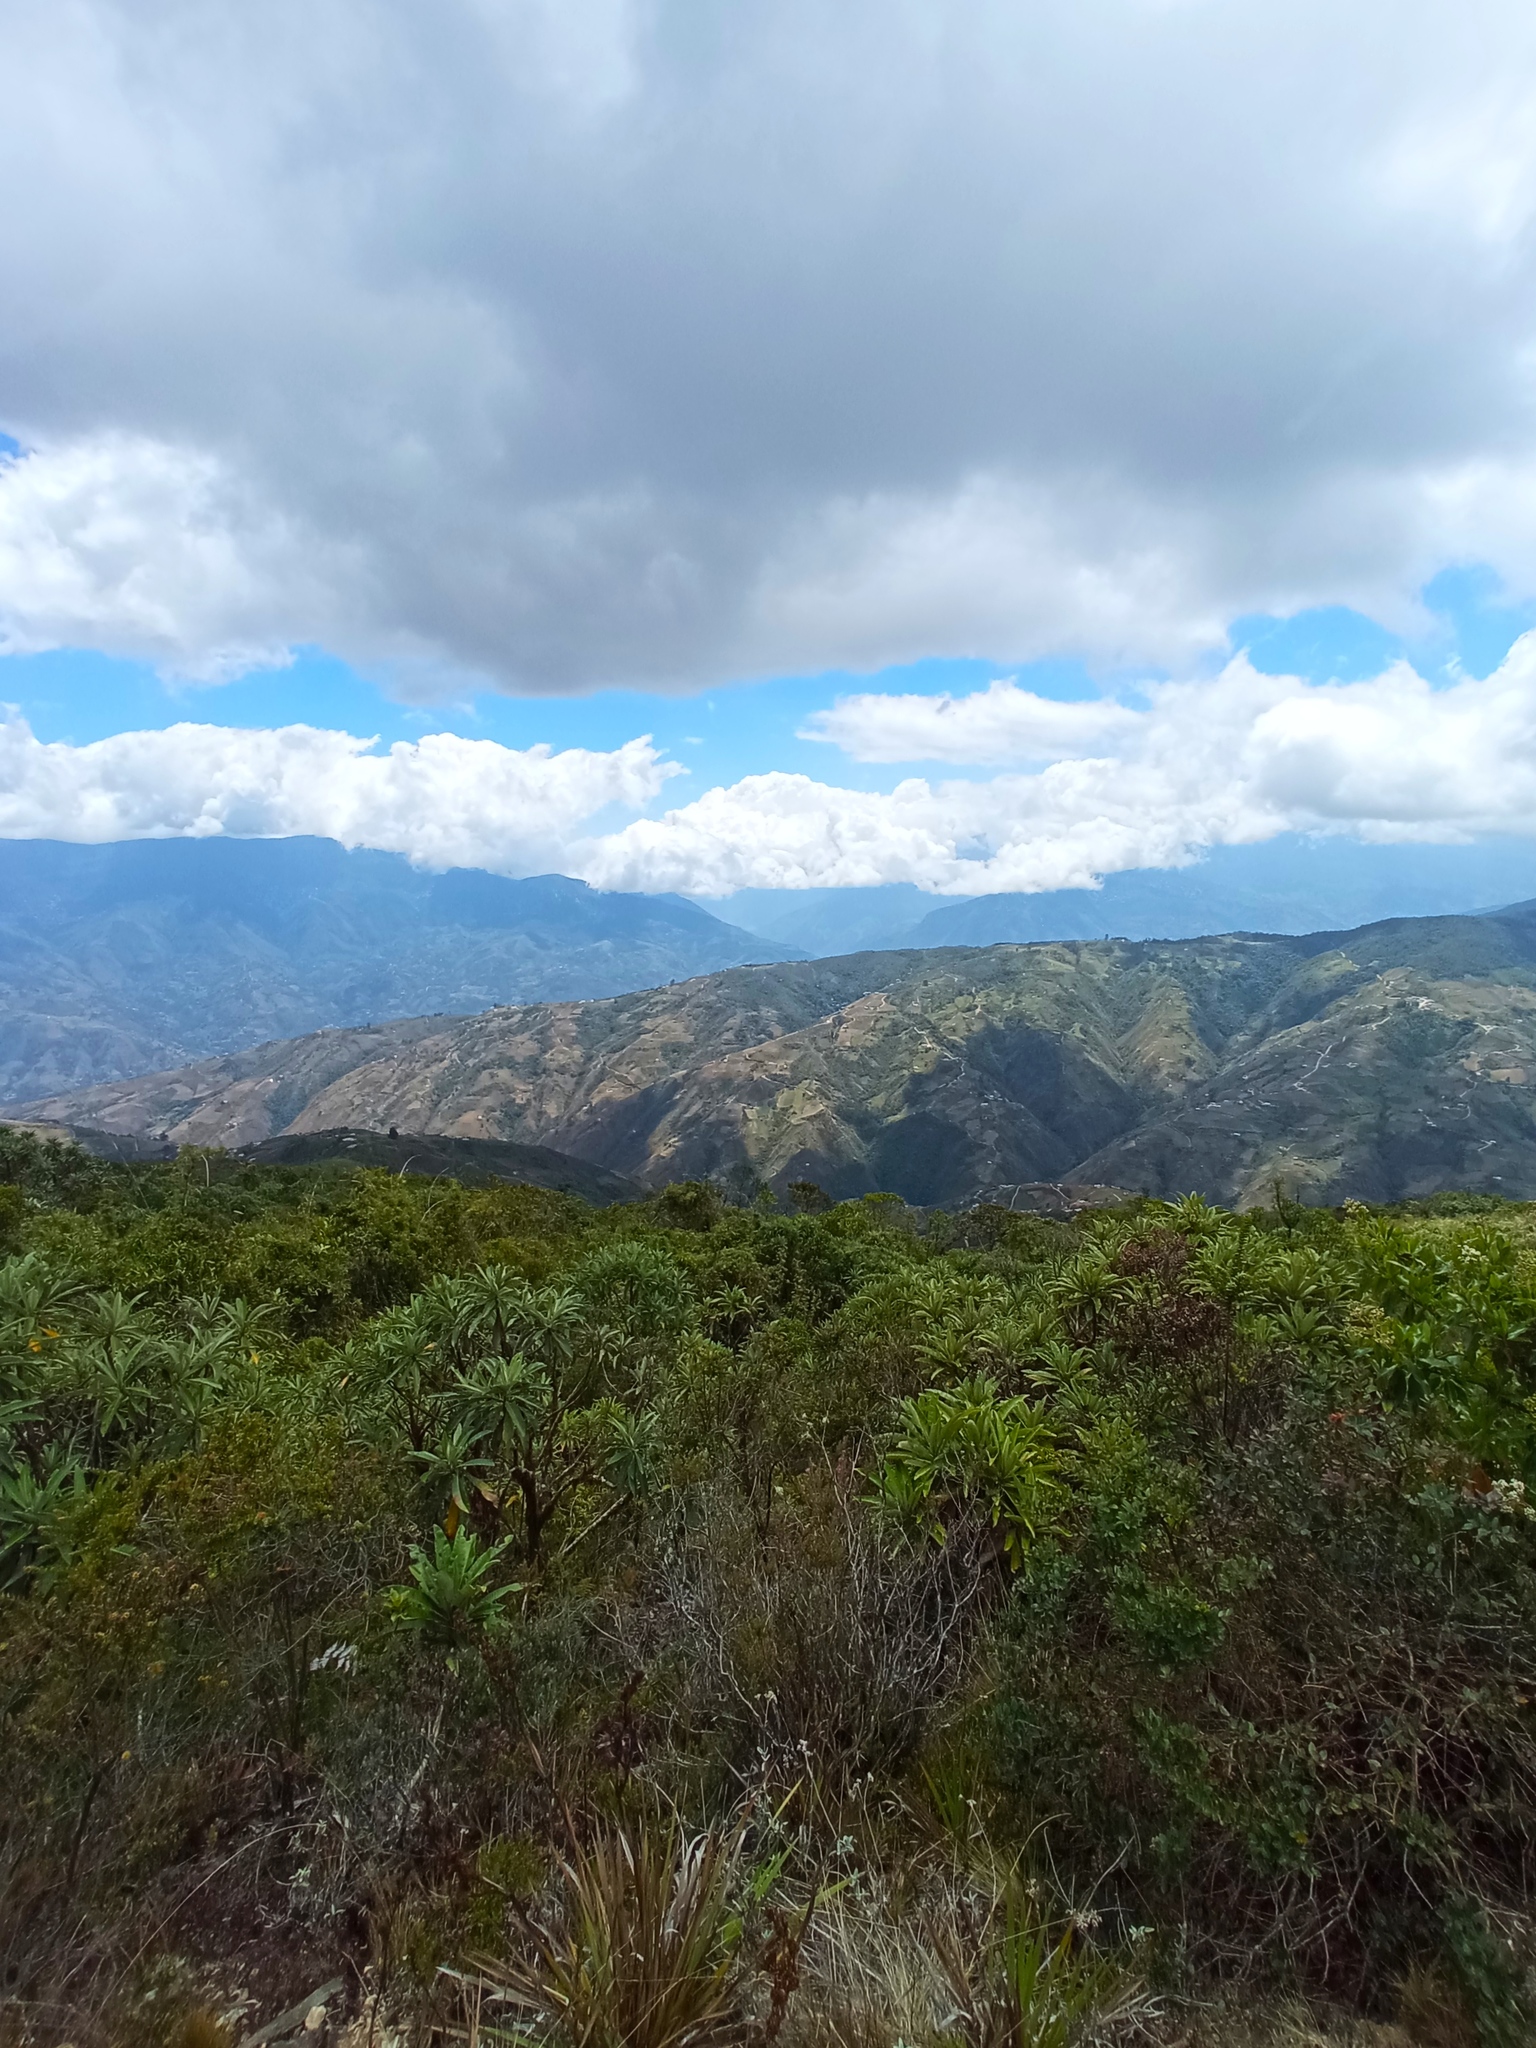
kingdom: Plantae
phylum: Tracheophyta
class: Magnoliopsida
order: Asterales
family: Asteraceae
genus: Espeletia
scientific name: Espeletia neriifolia
